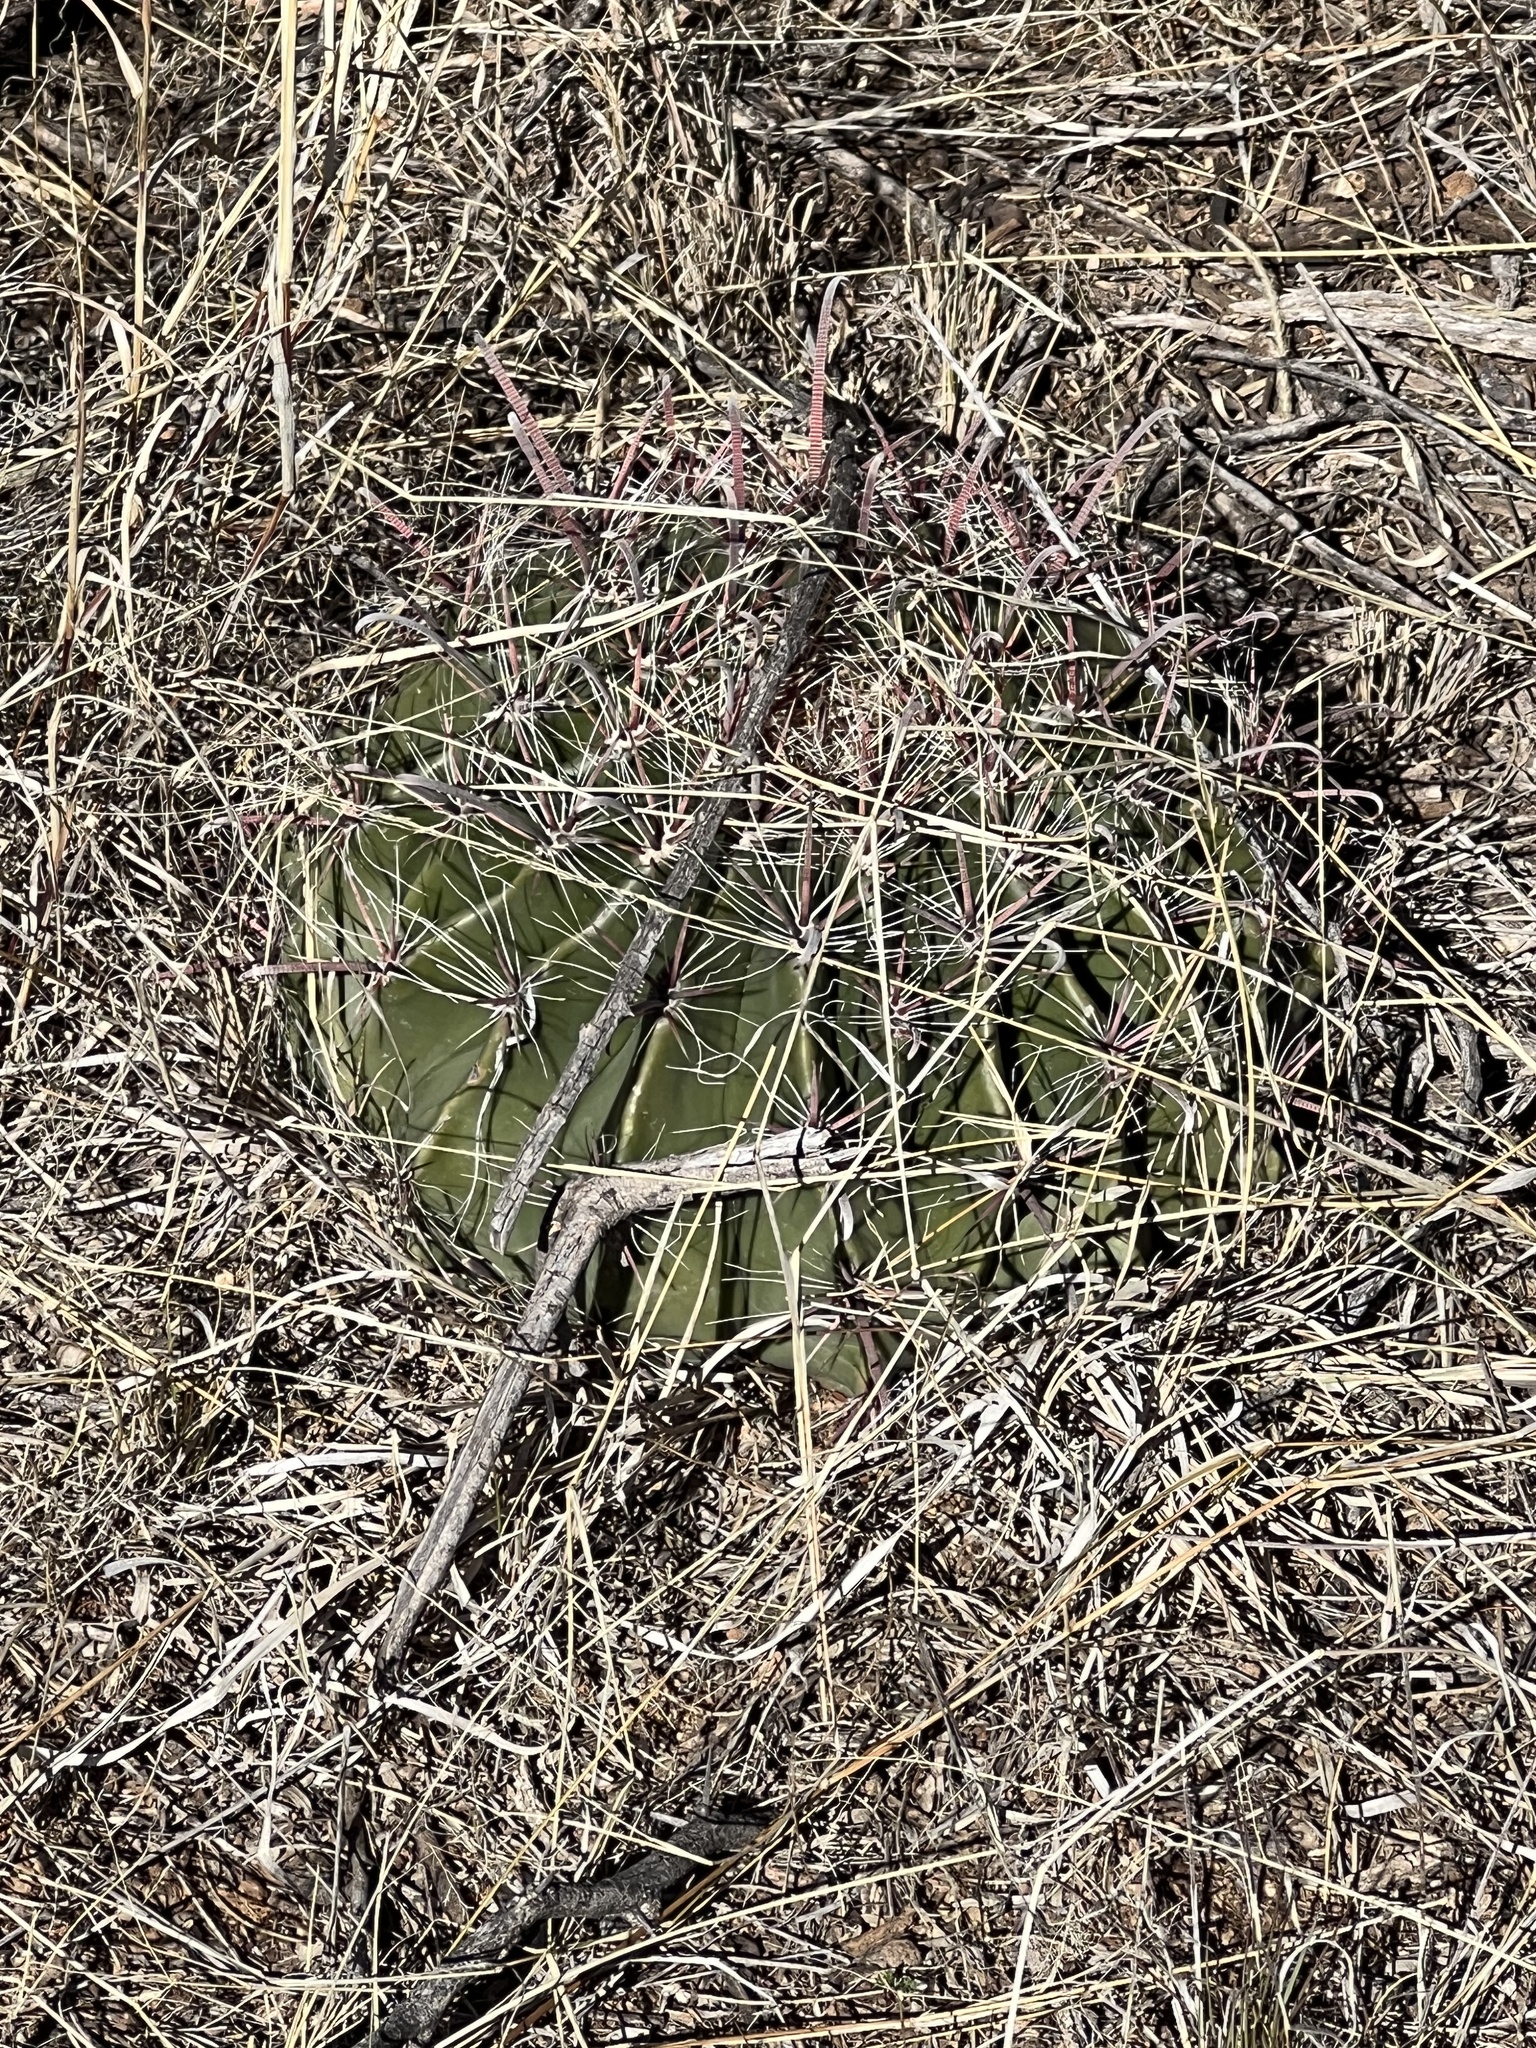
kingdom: Plantae
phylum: Tracheophyta
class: Magnoliopsida
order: Caryophyllales
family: Cactaceae
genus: Ferocactus
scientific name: Ferocactus wislizeni
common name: Candy barrel cactus
